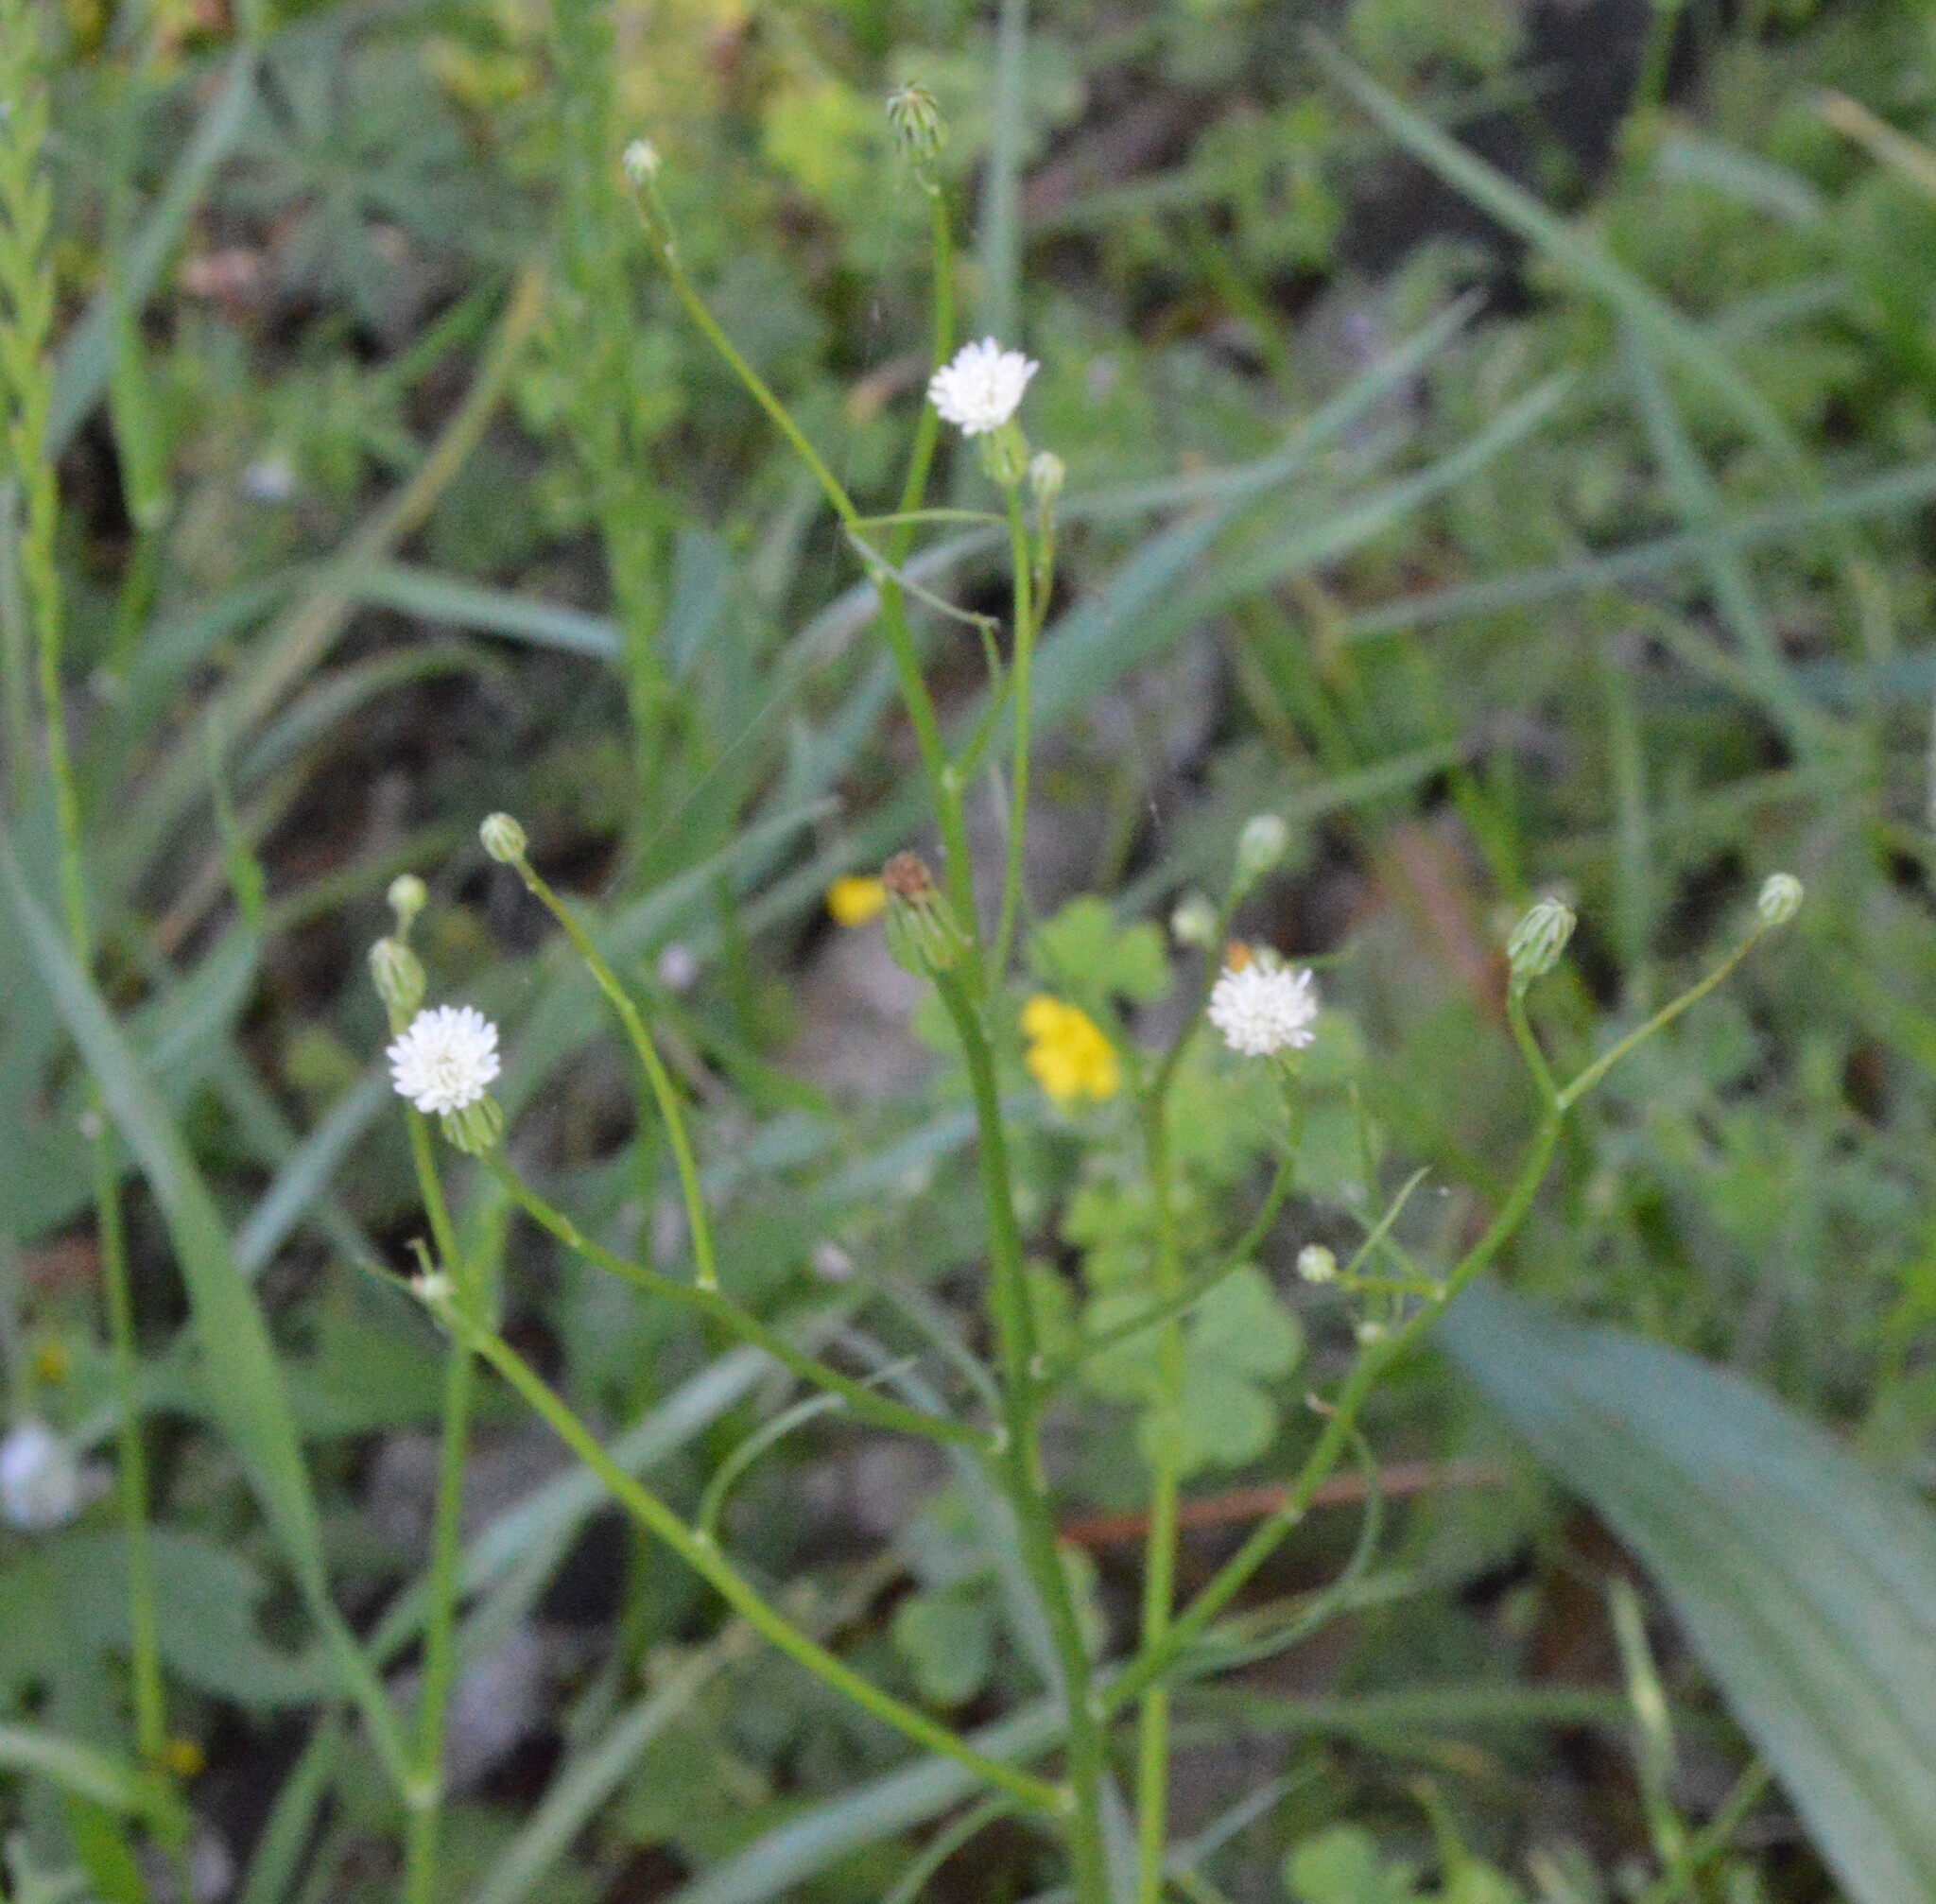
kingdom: Plantae
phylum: Tracheophyta
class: Magnoliopsida
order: Asterales
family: Asteraceae
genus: Hypochaeris
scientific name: Hypochaeris albiflora
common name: White flatweed
